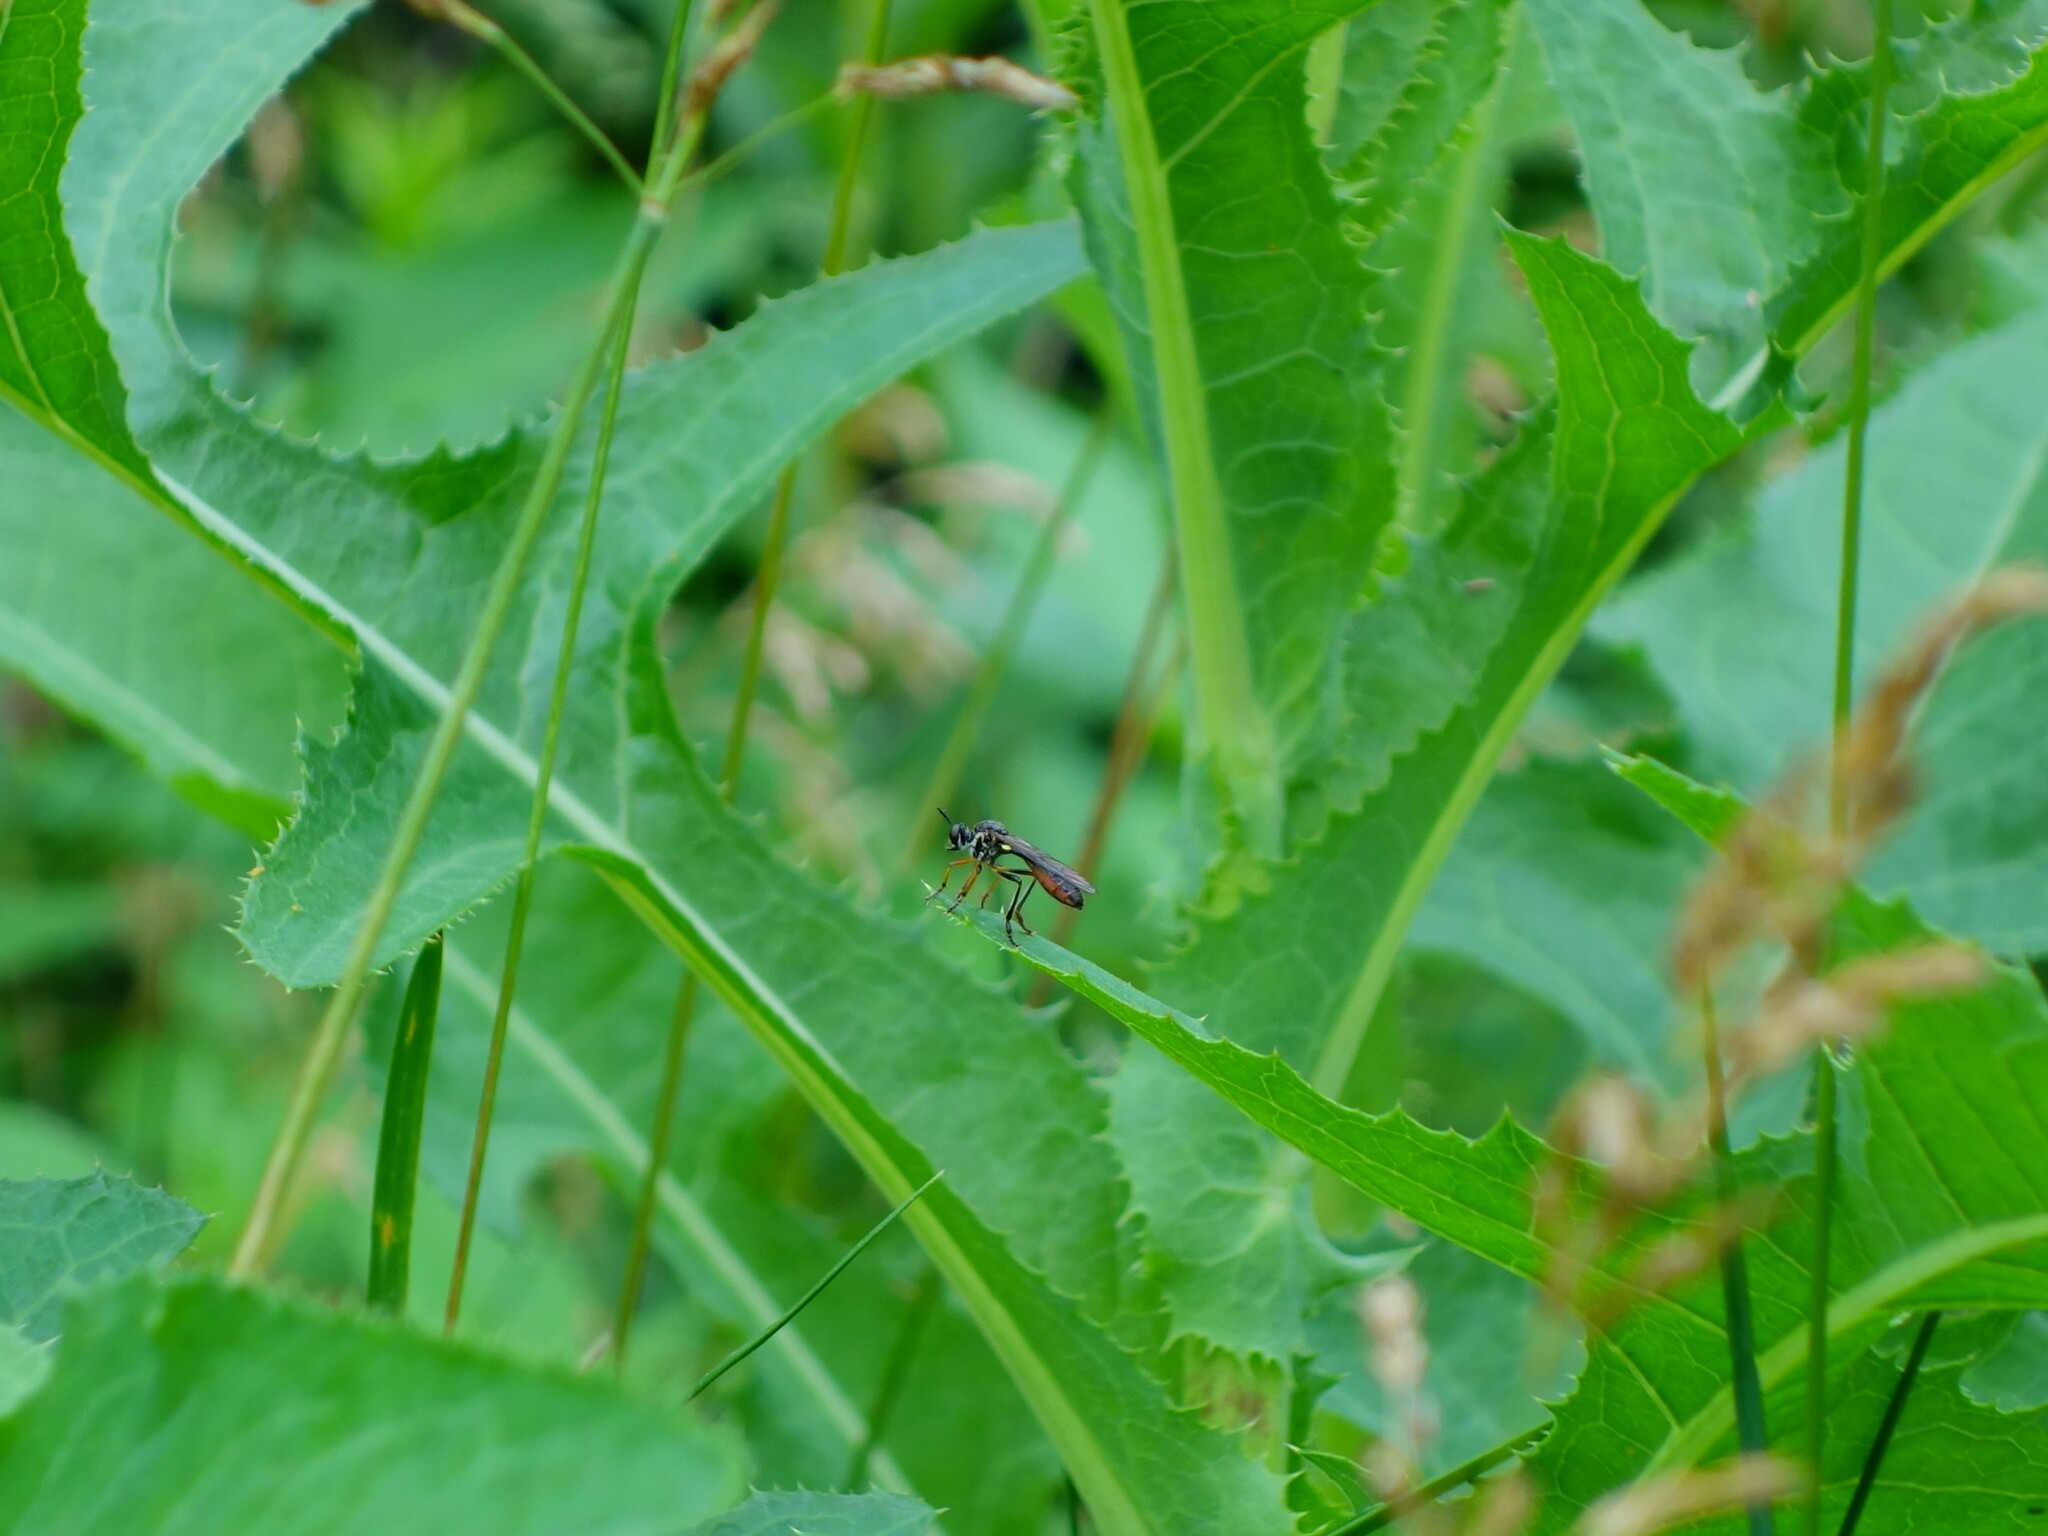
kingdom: Animalia
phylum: Arthropoda
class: Insecta
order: Diptera
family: Asilidae
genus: Dioctria
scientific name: Dioctria hyalipennis
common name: Stripe-legged robberfly
